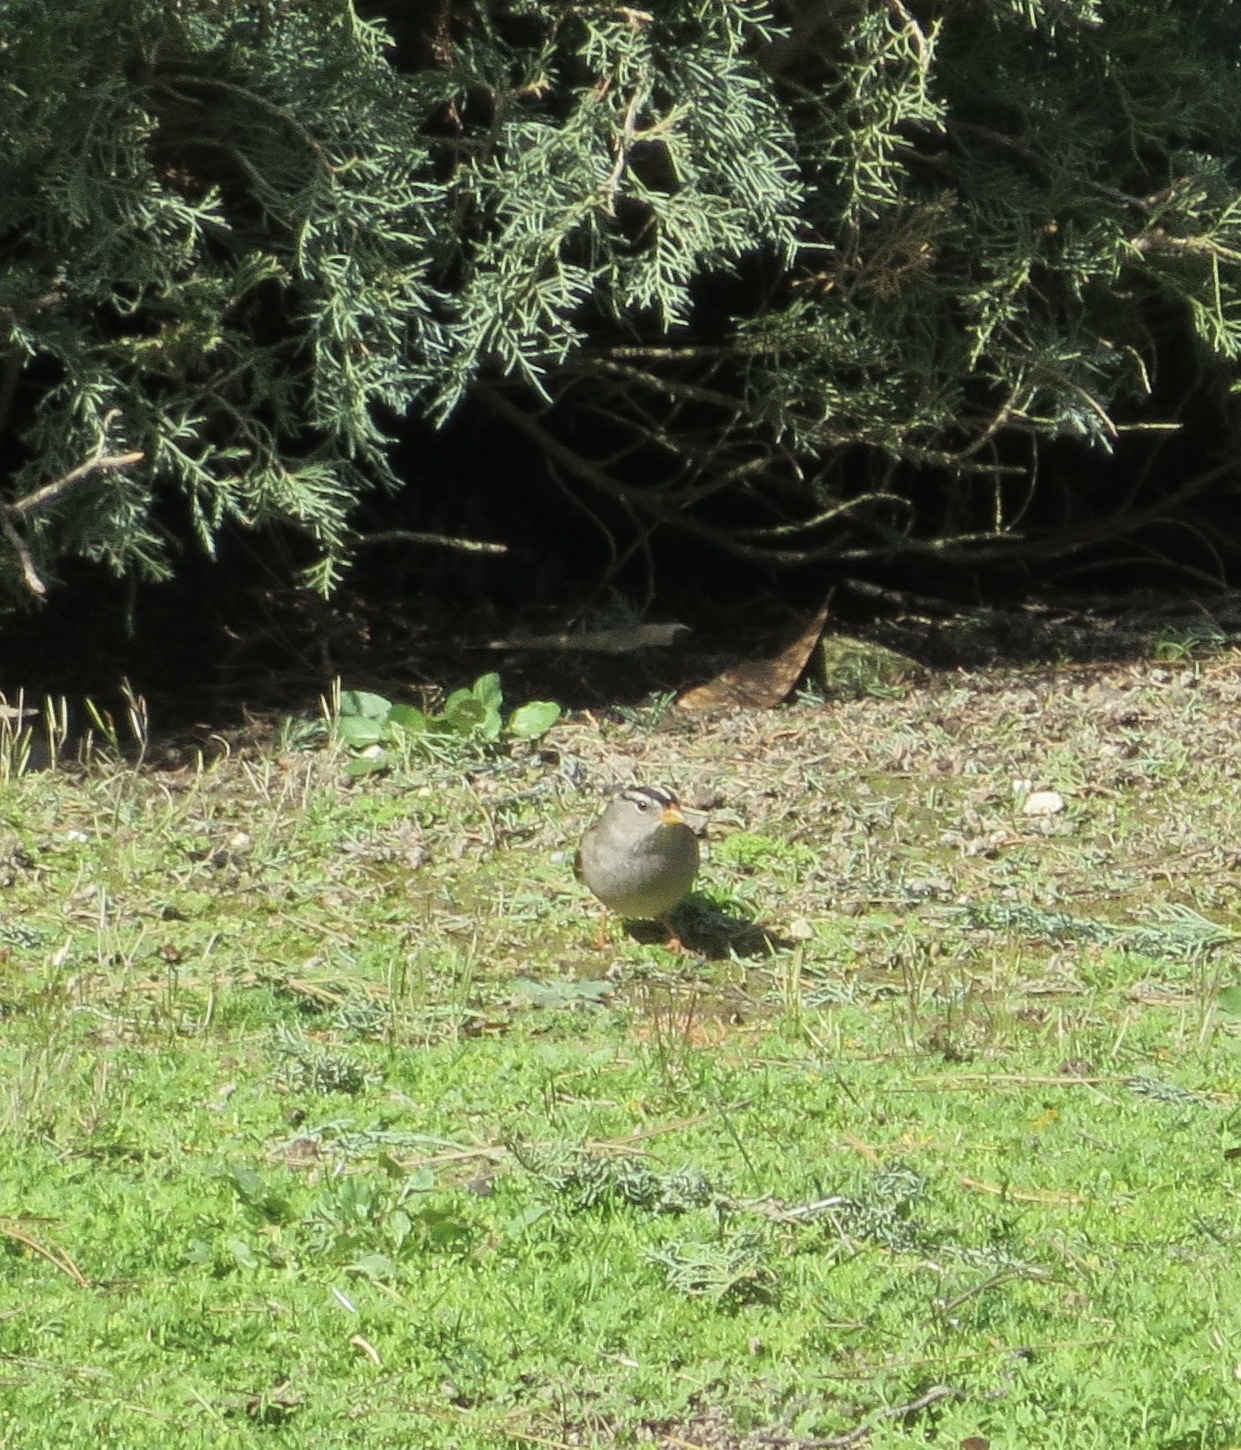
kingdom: Animalia
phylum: Chordata
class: Aves
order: Passeriformes
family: Passerellidae
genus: Zonotrichia
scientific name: Zonotrichia leucophrys
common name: White-crowned sparrow
